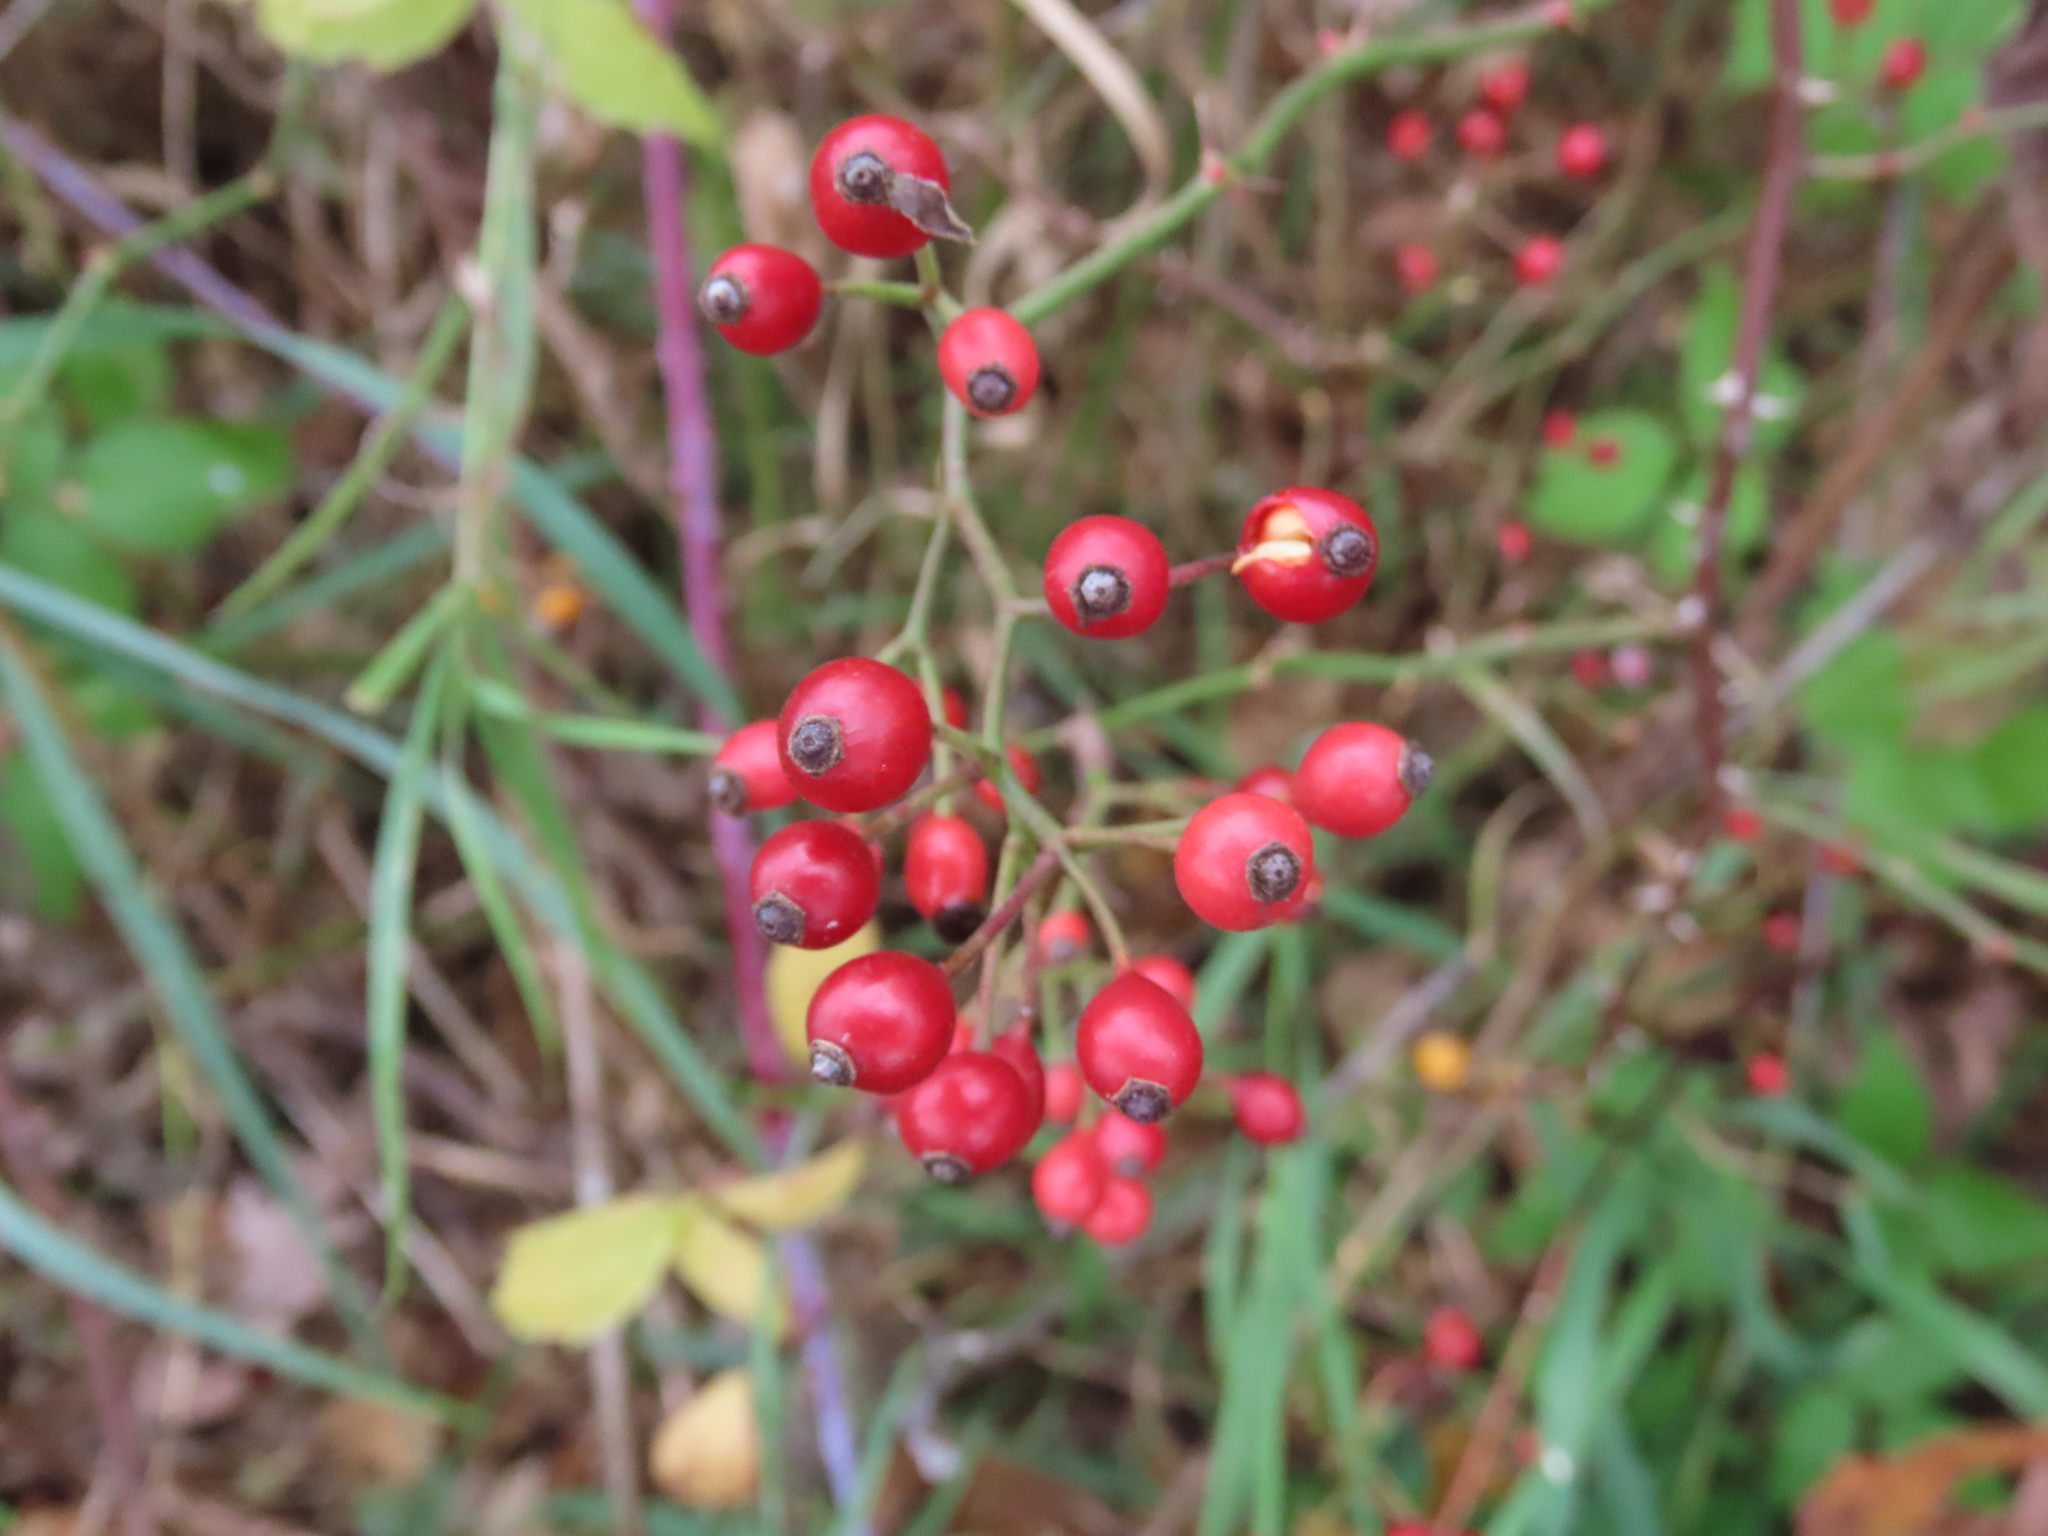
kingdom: Plantae
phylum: Tracheophyta
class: Magnoliopsida
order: Rosales
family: Rosaceae
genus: Rosa
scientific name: Rosa multiflora
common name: Multiflora rose
